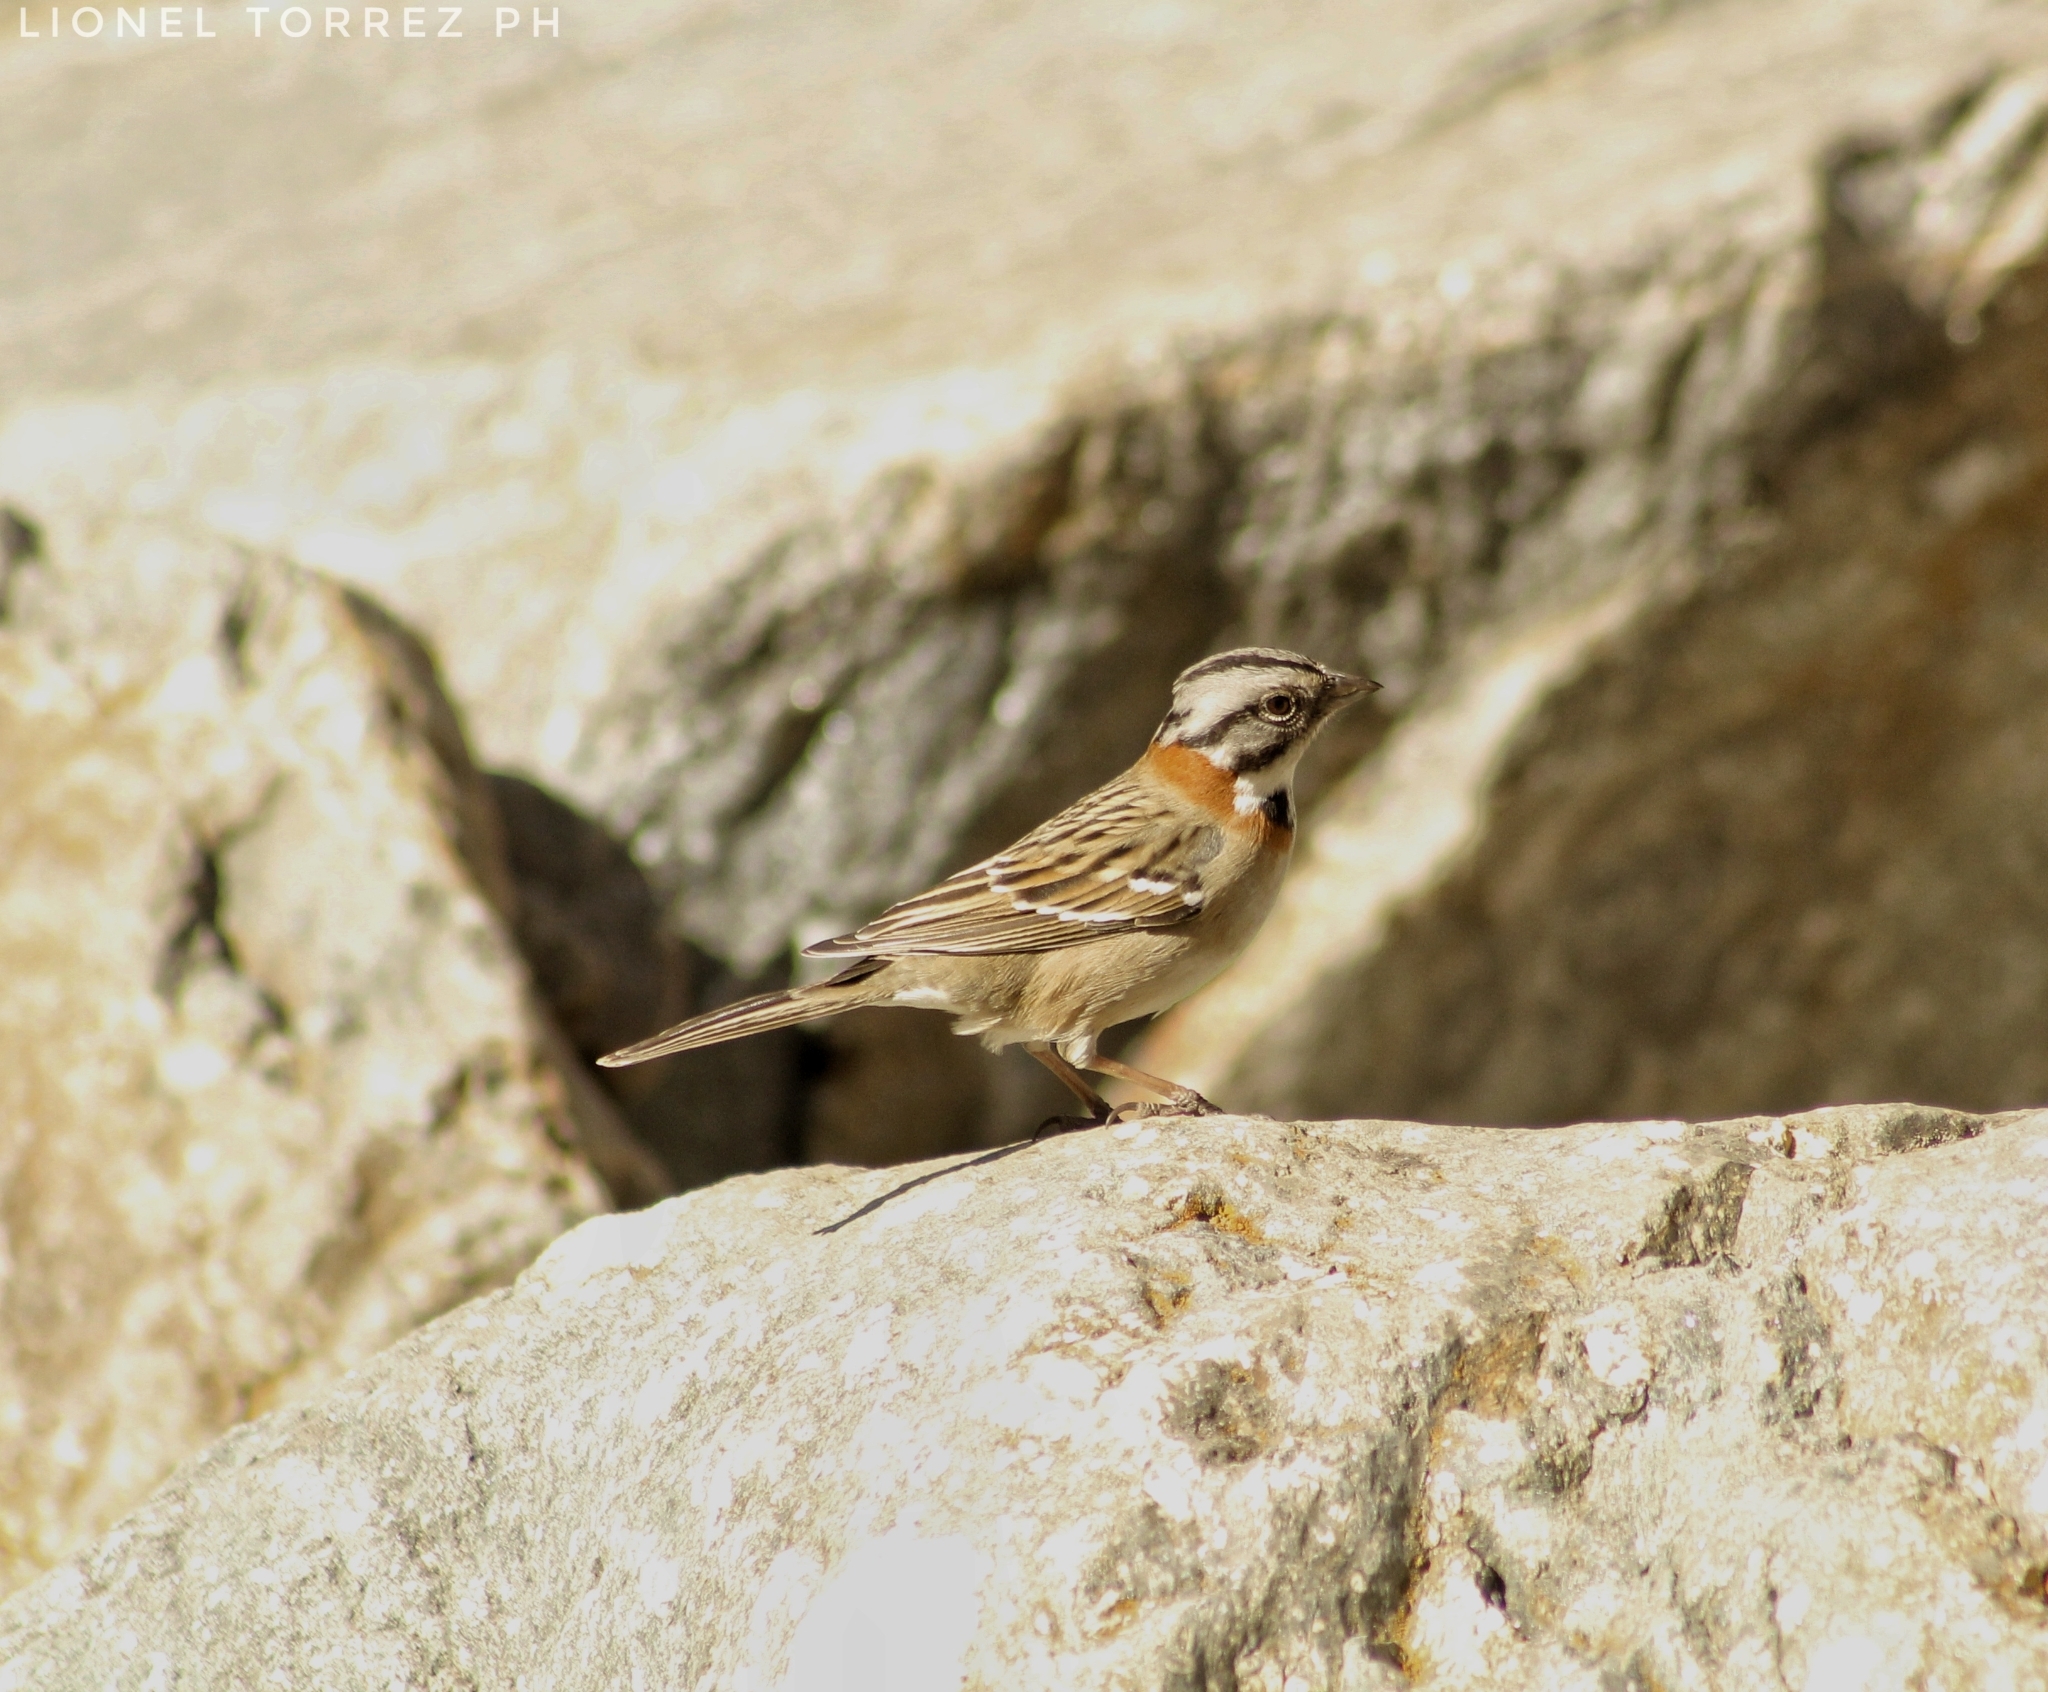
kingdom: Animalia
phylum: Chordata
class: Aves
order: Passeriformes
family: Passerellidae
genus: Zonotrichia
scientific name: Zonotrichia capensis
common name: Rufous-collared sparrow
